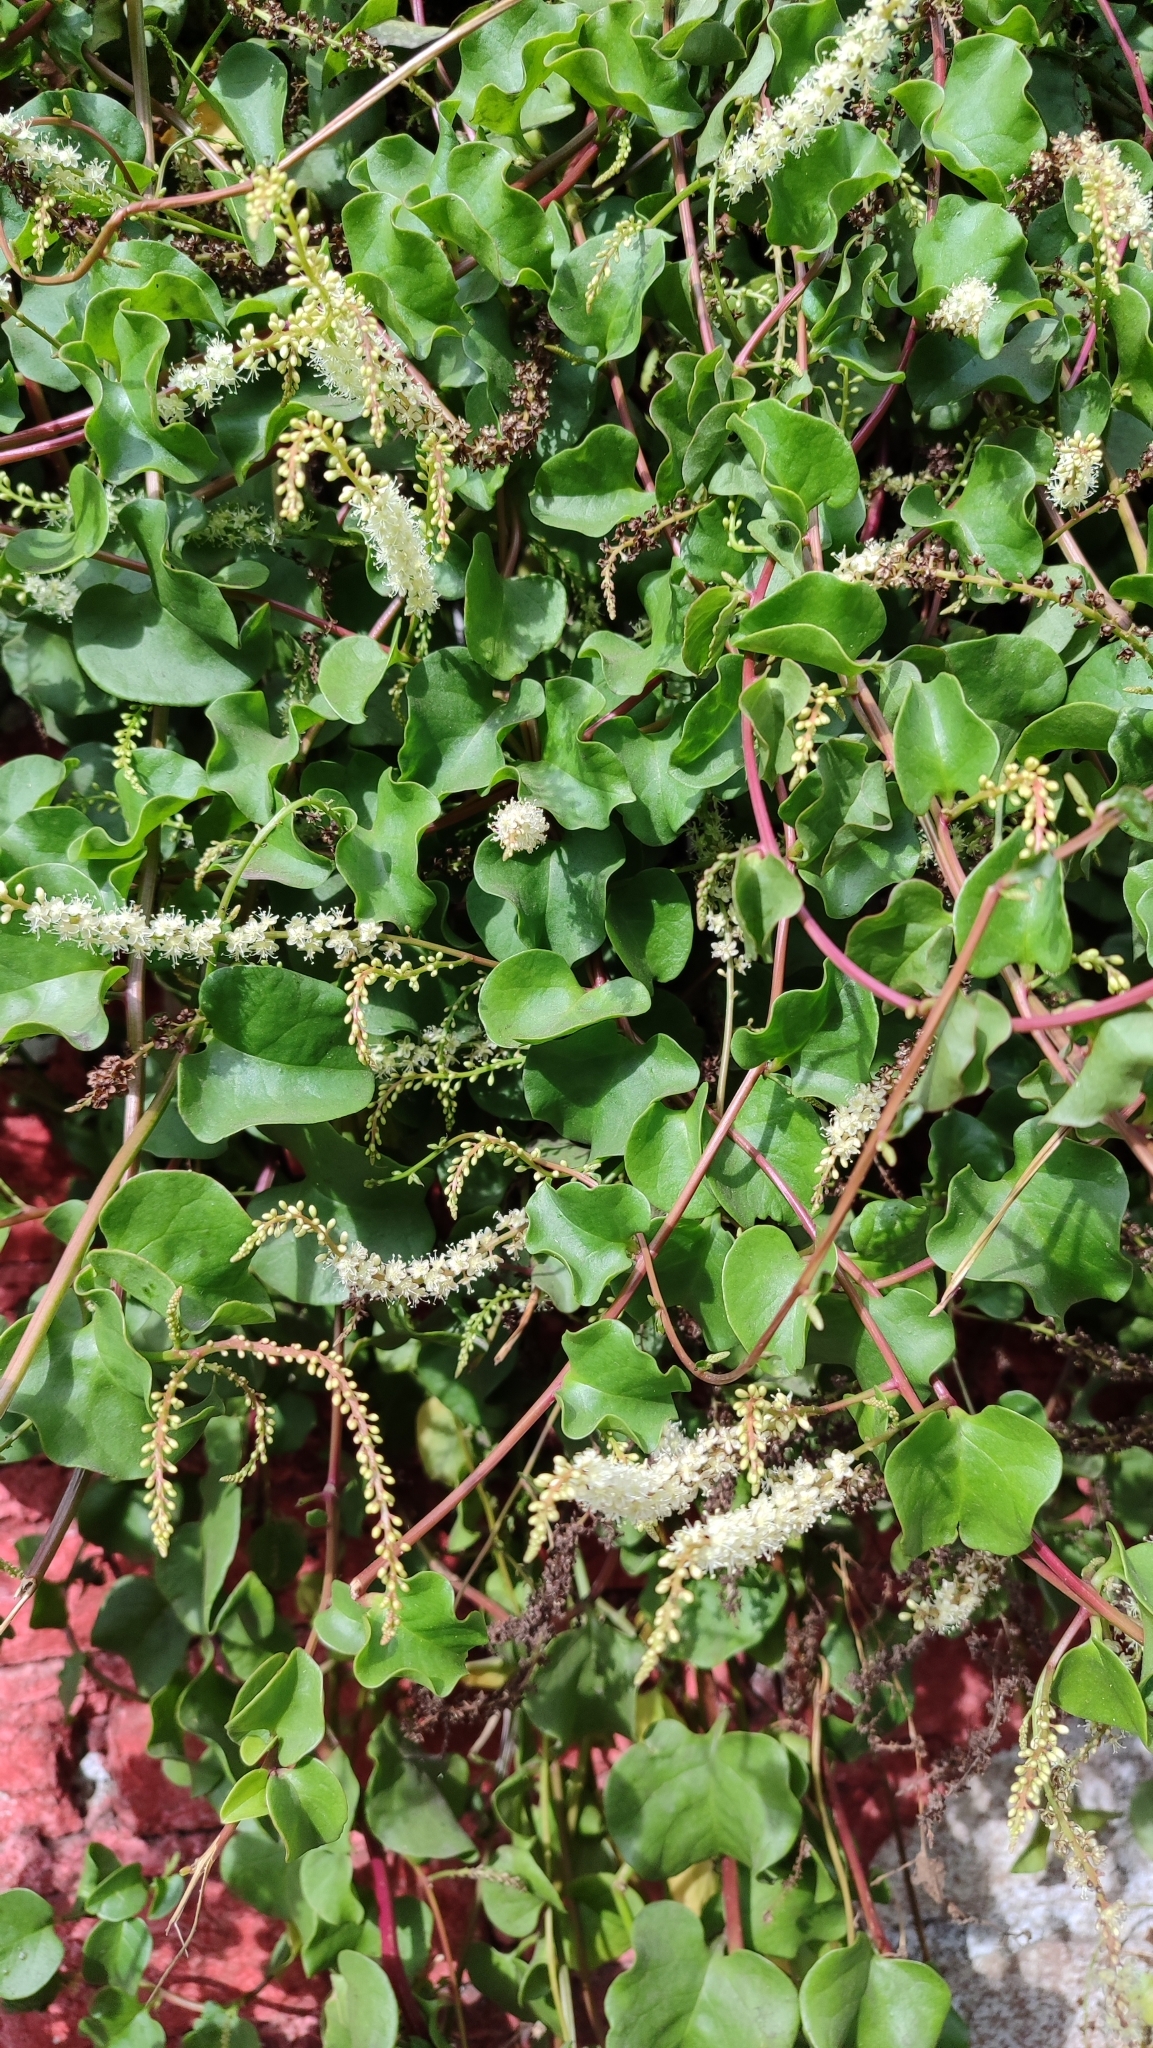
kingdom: Plantae
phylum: Tracheophyta
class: Magnoliopsida
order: Caryophyllales
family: Basellaceae
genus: Anredera
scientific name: Anredera cordifolia
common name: Heartleaf madeiravine
